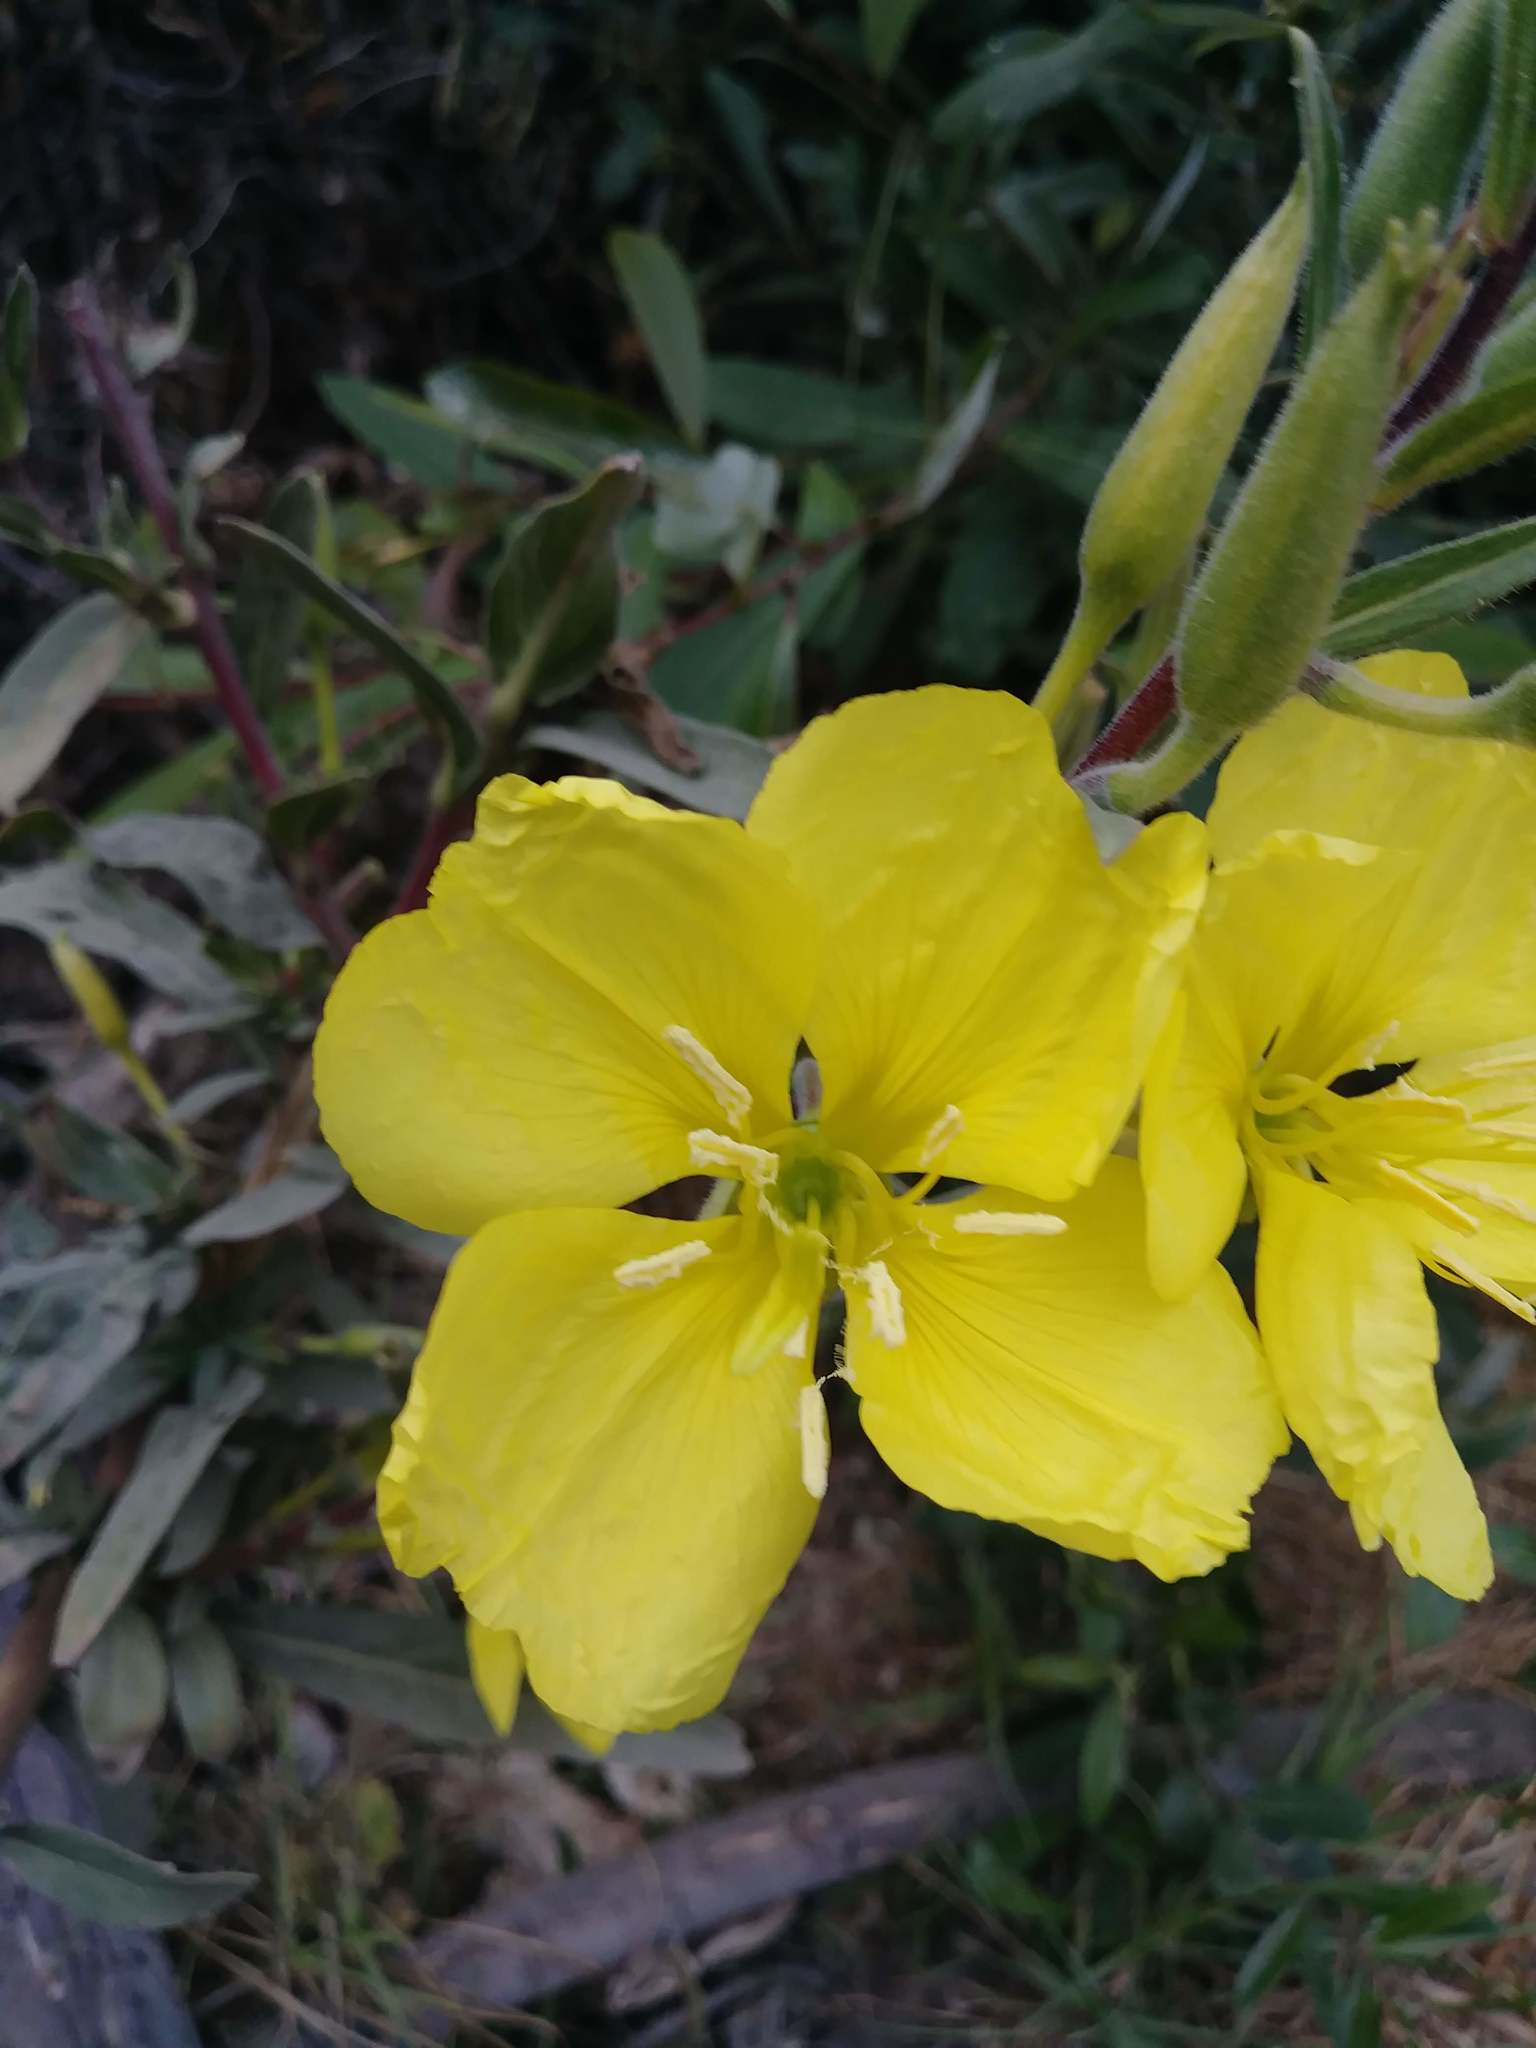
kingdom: Plantae
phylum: Tracheophyta
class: Magnoliopsida
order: Myrtales
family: Onagraceae
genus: Oenothera
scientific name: Oenothera elata
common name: Hooker's evening-primrose
